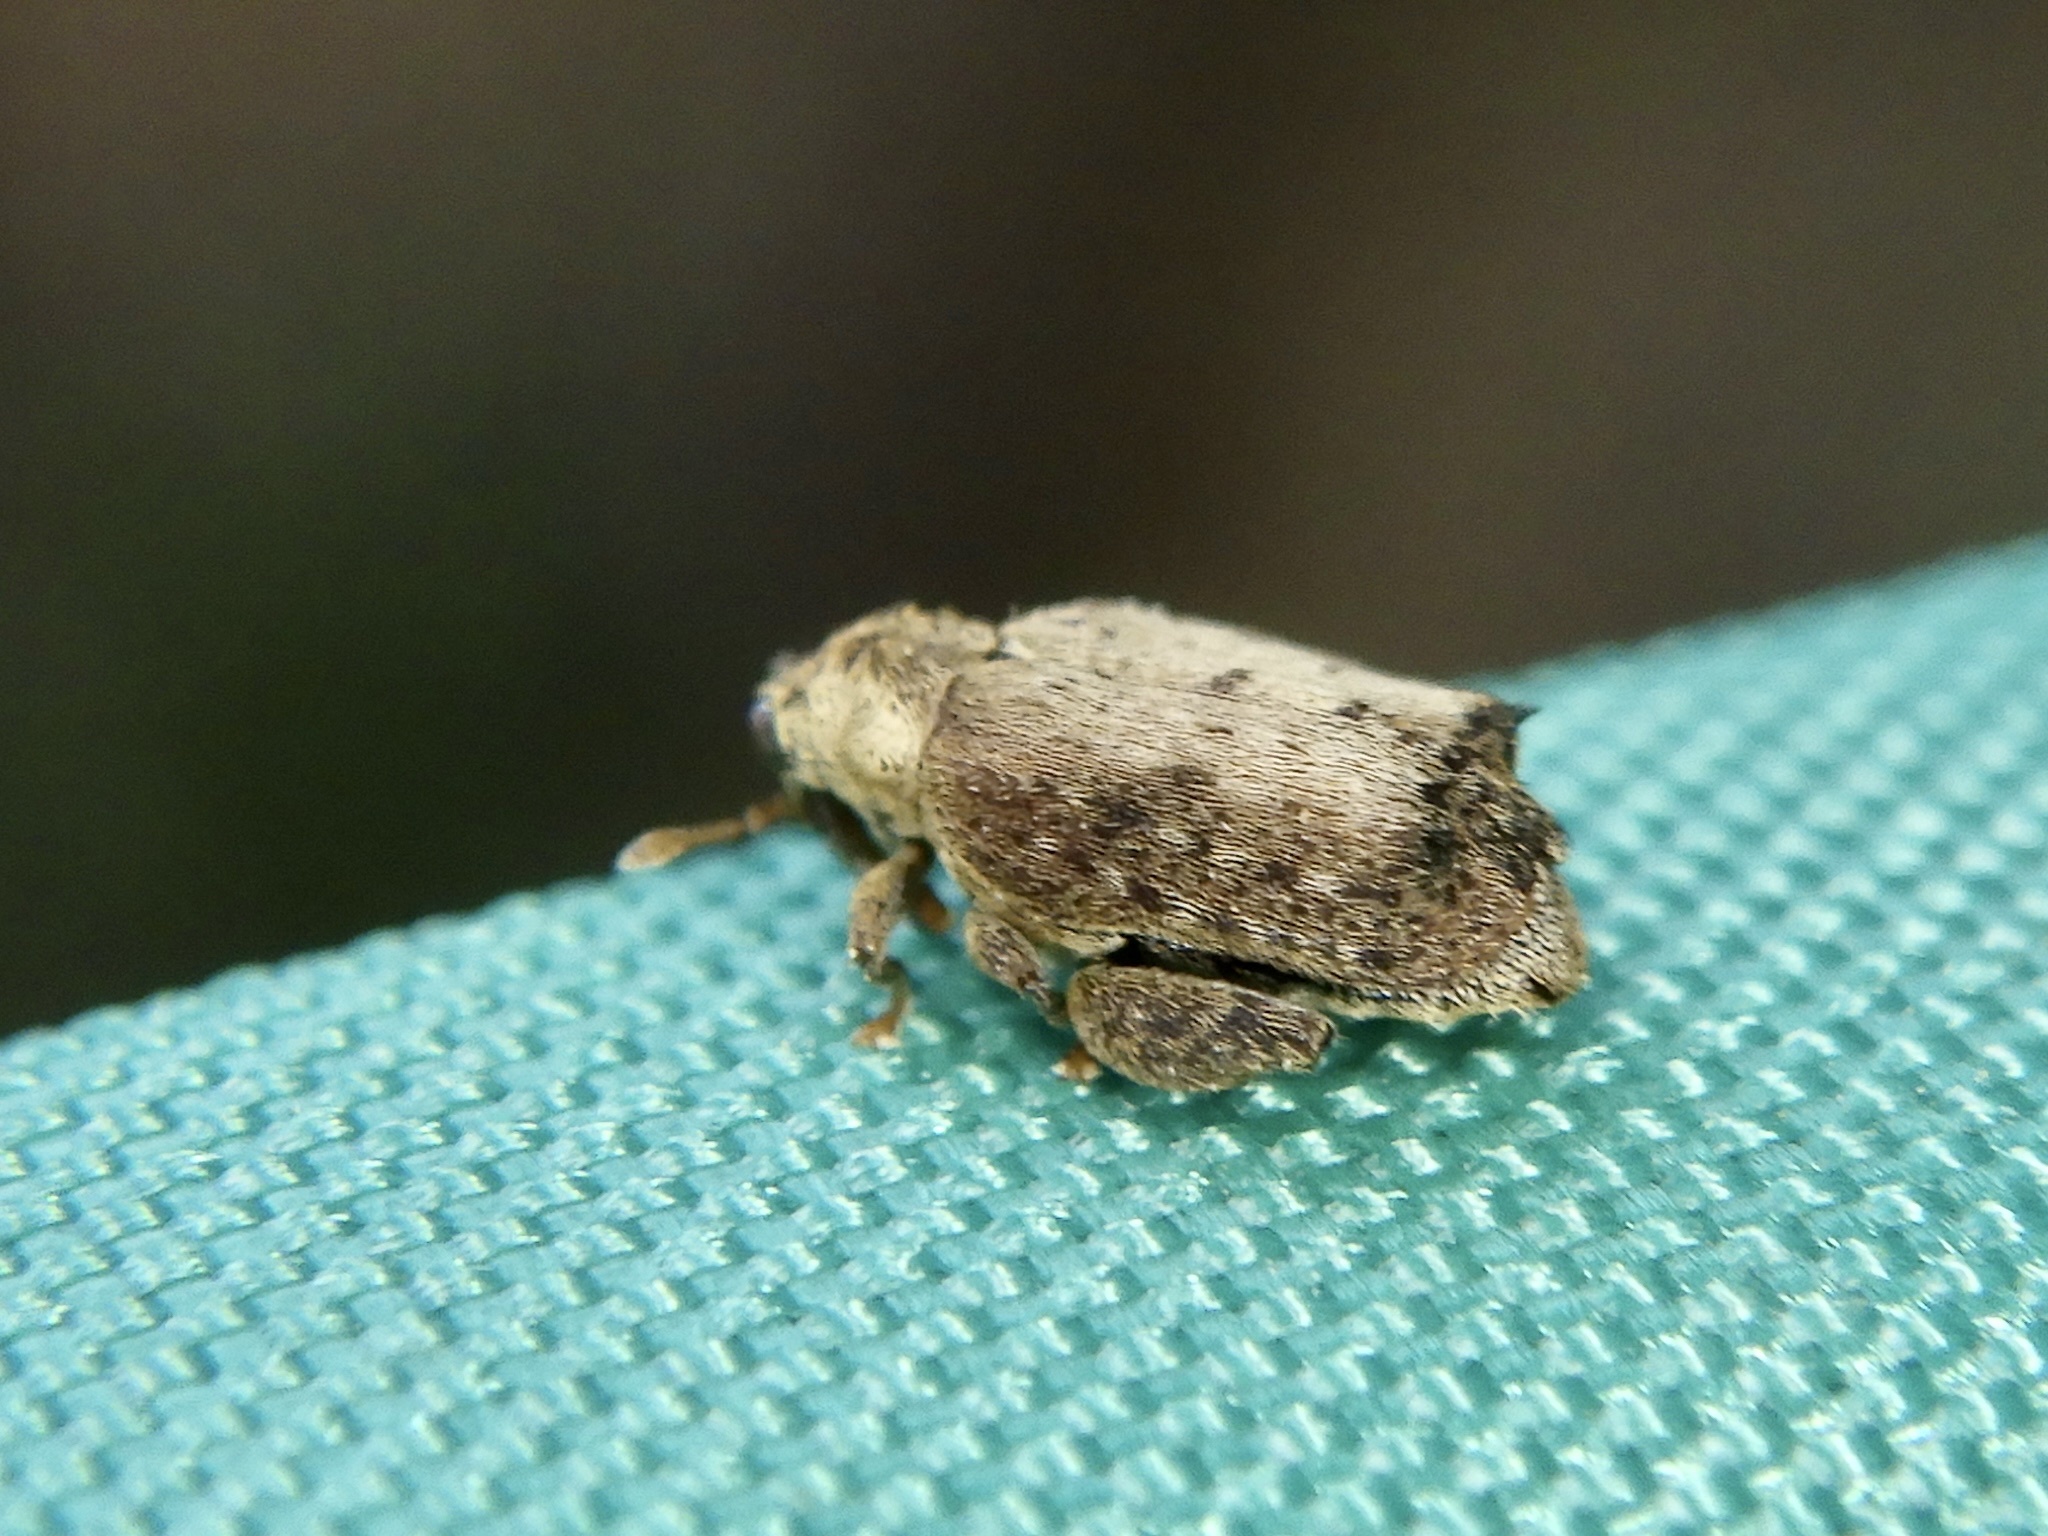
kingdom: Animalia
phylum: Arthropoda
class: Insecta
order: Coleoptera
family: Curculionidae
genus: Orchestes
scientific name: Orchestes dorsoplanatus
